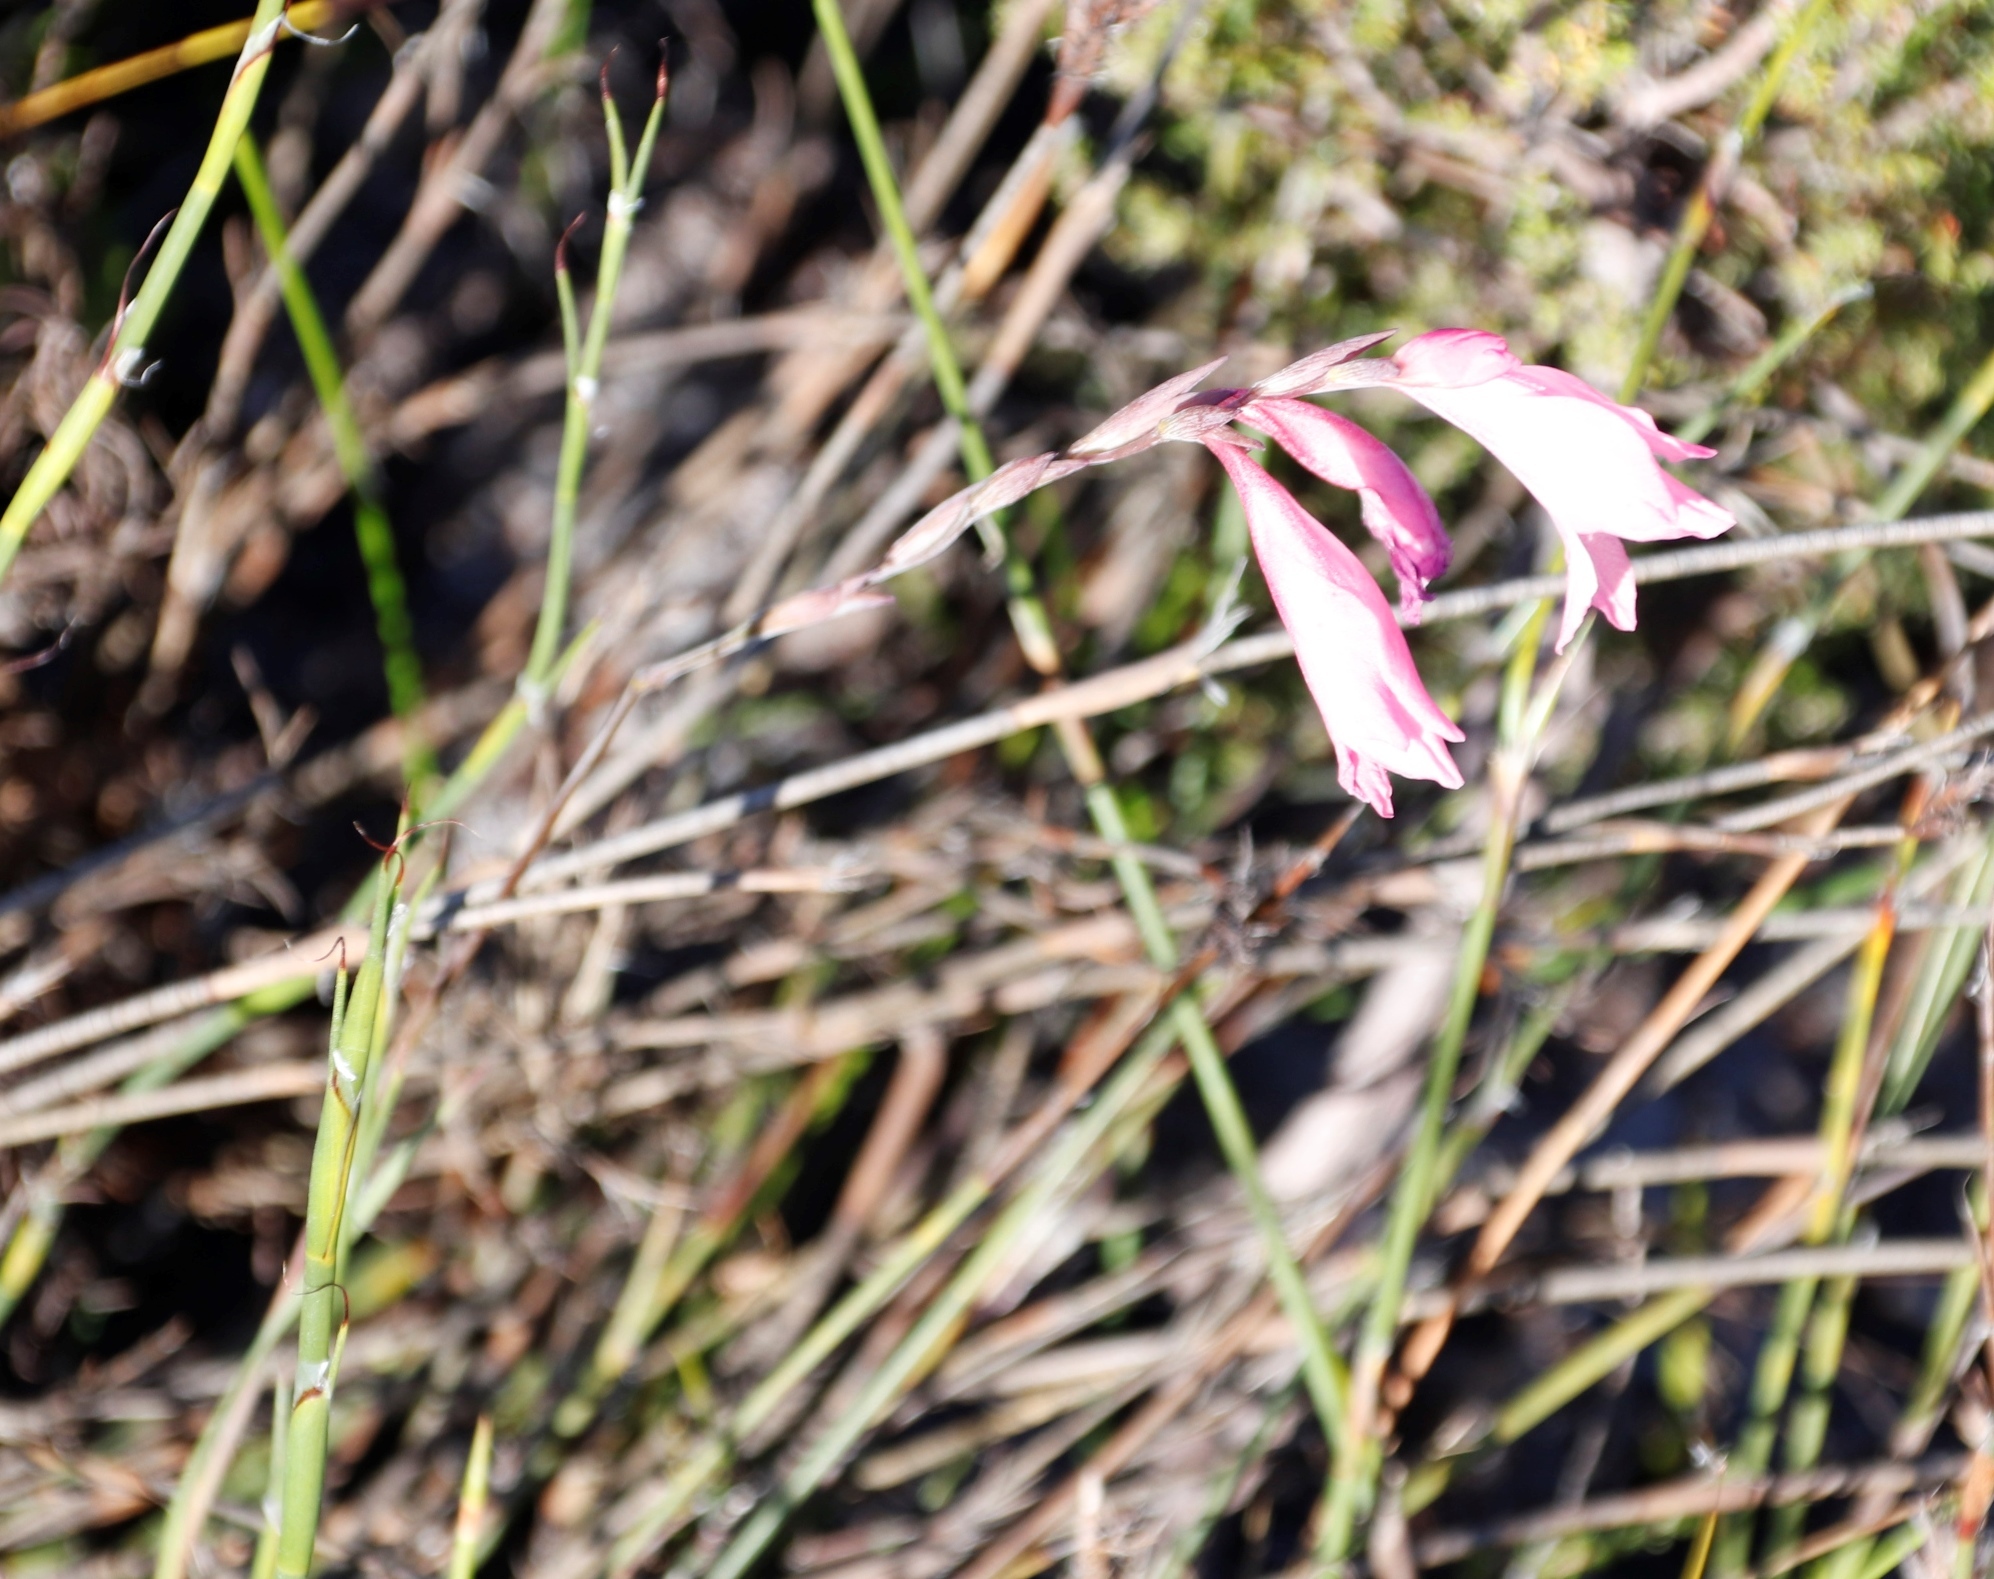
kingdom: Plantae
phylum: Tracheophyta
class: Liliopsida
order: Asparagales
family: Iridaceae
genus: Gladiolus
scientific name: Gladiolus brevifolius
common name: March pypie
